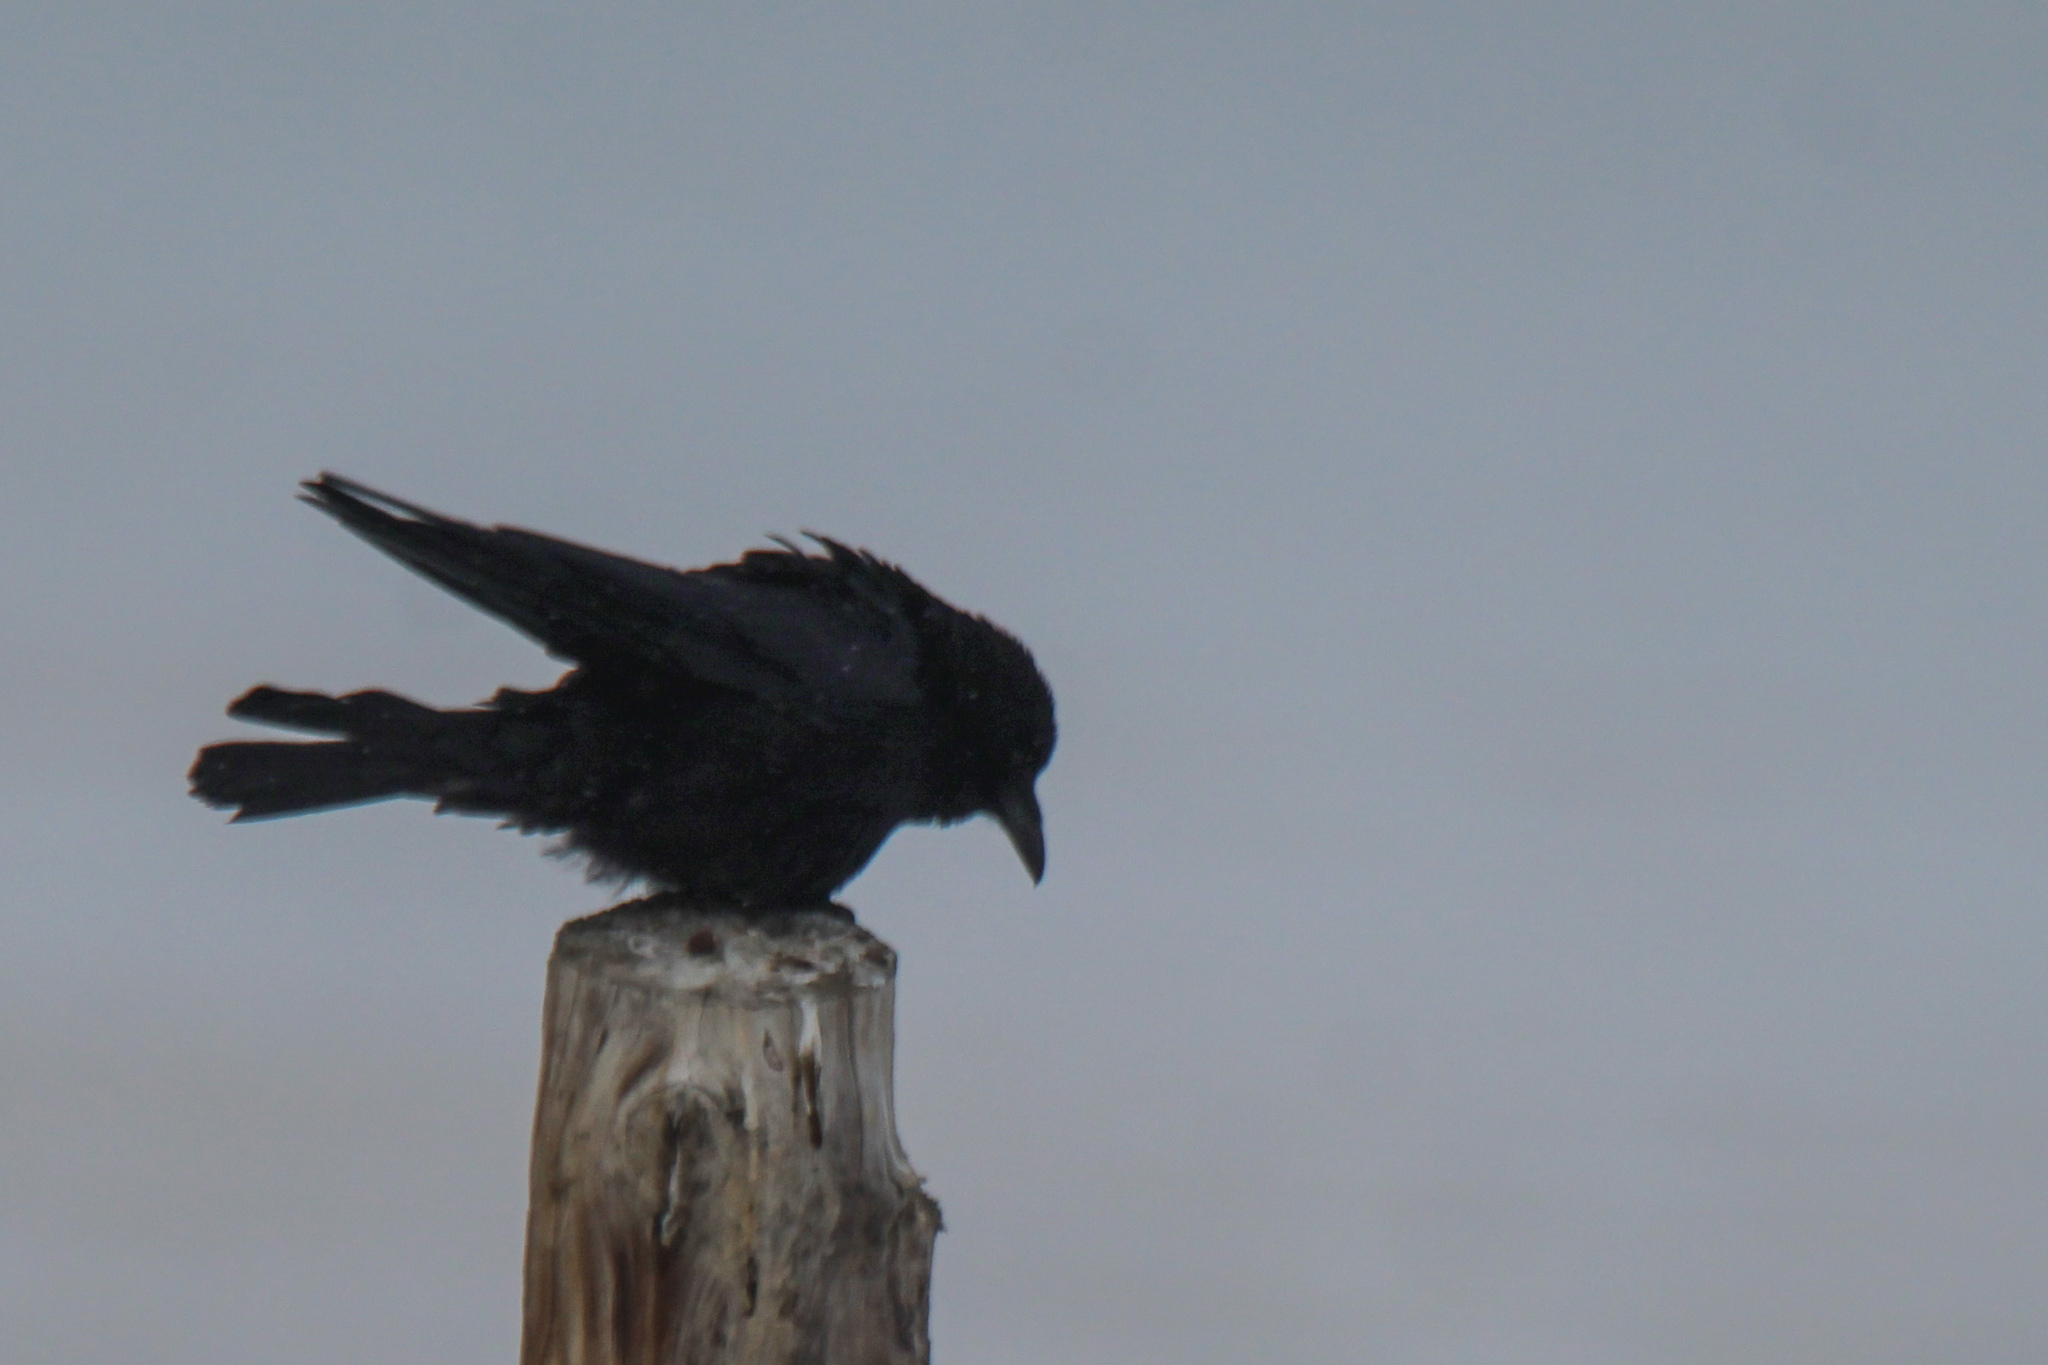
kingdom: Animalia
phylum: Chordata
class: Aves
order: Passeriformes
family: Corvidae
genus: Corvus
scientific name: Corvus corone
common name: Carrion crow
